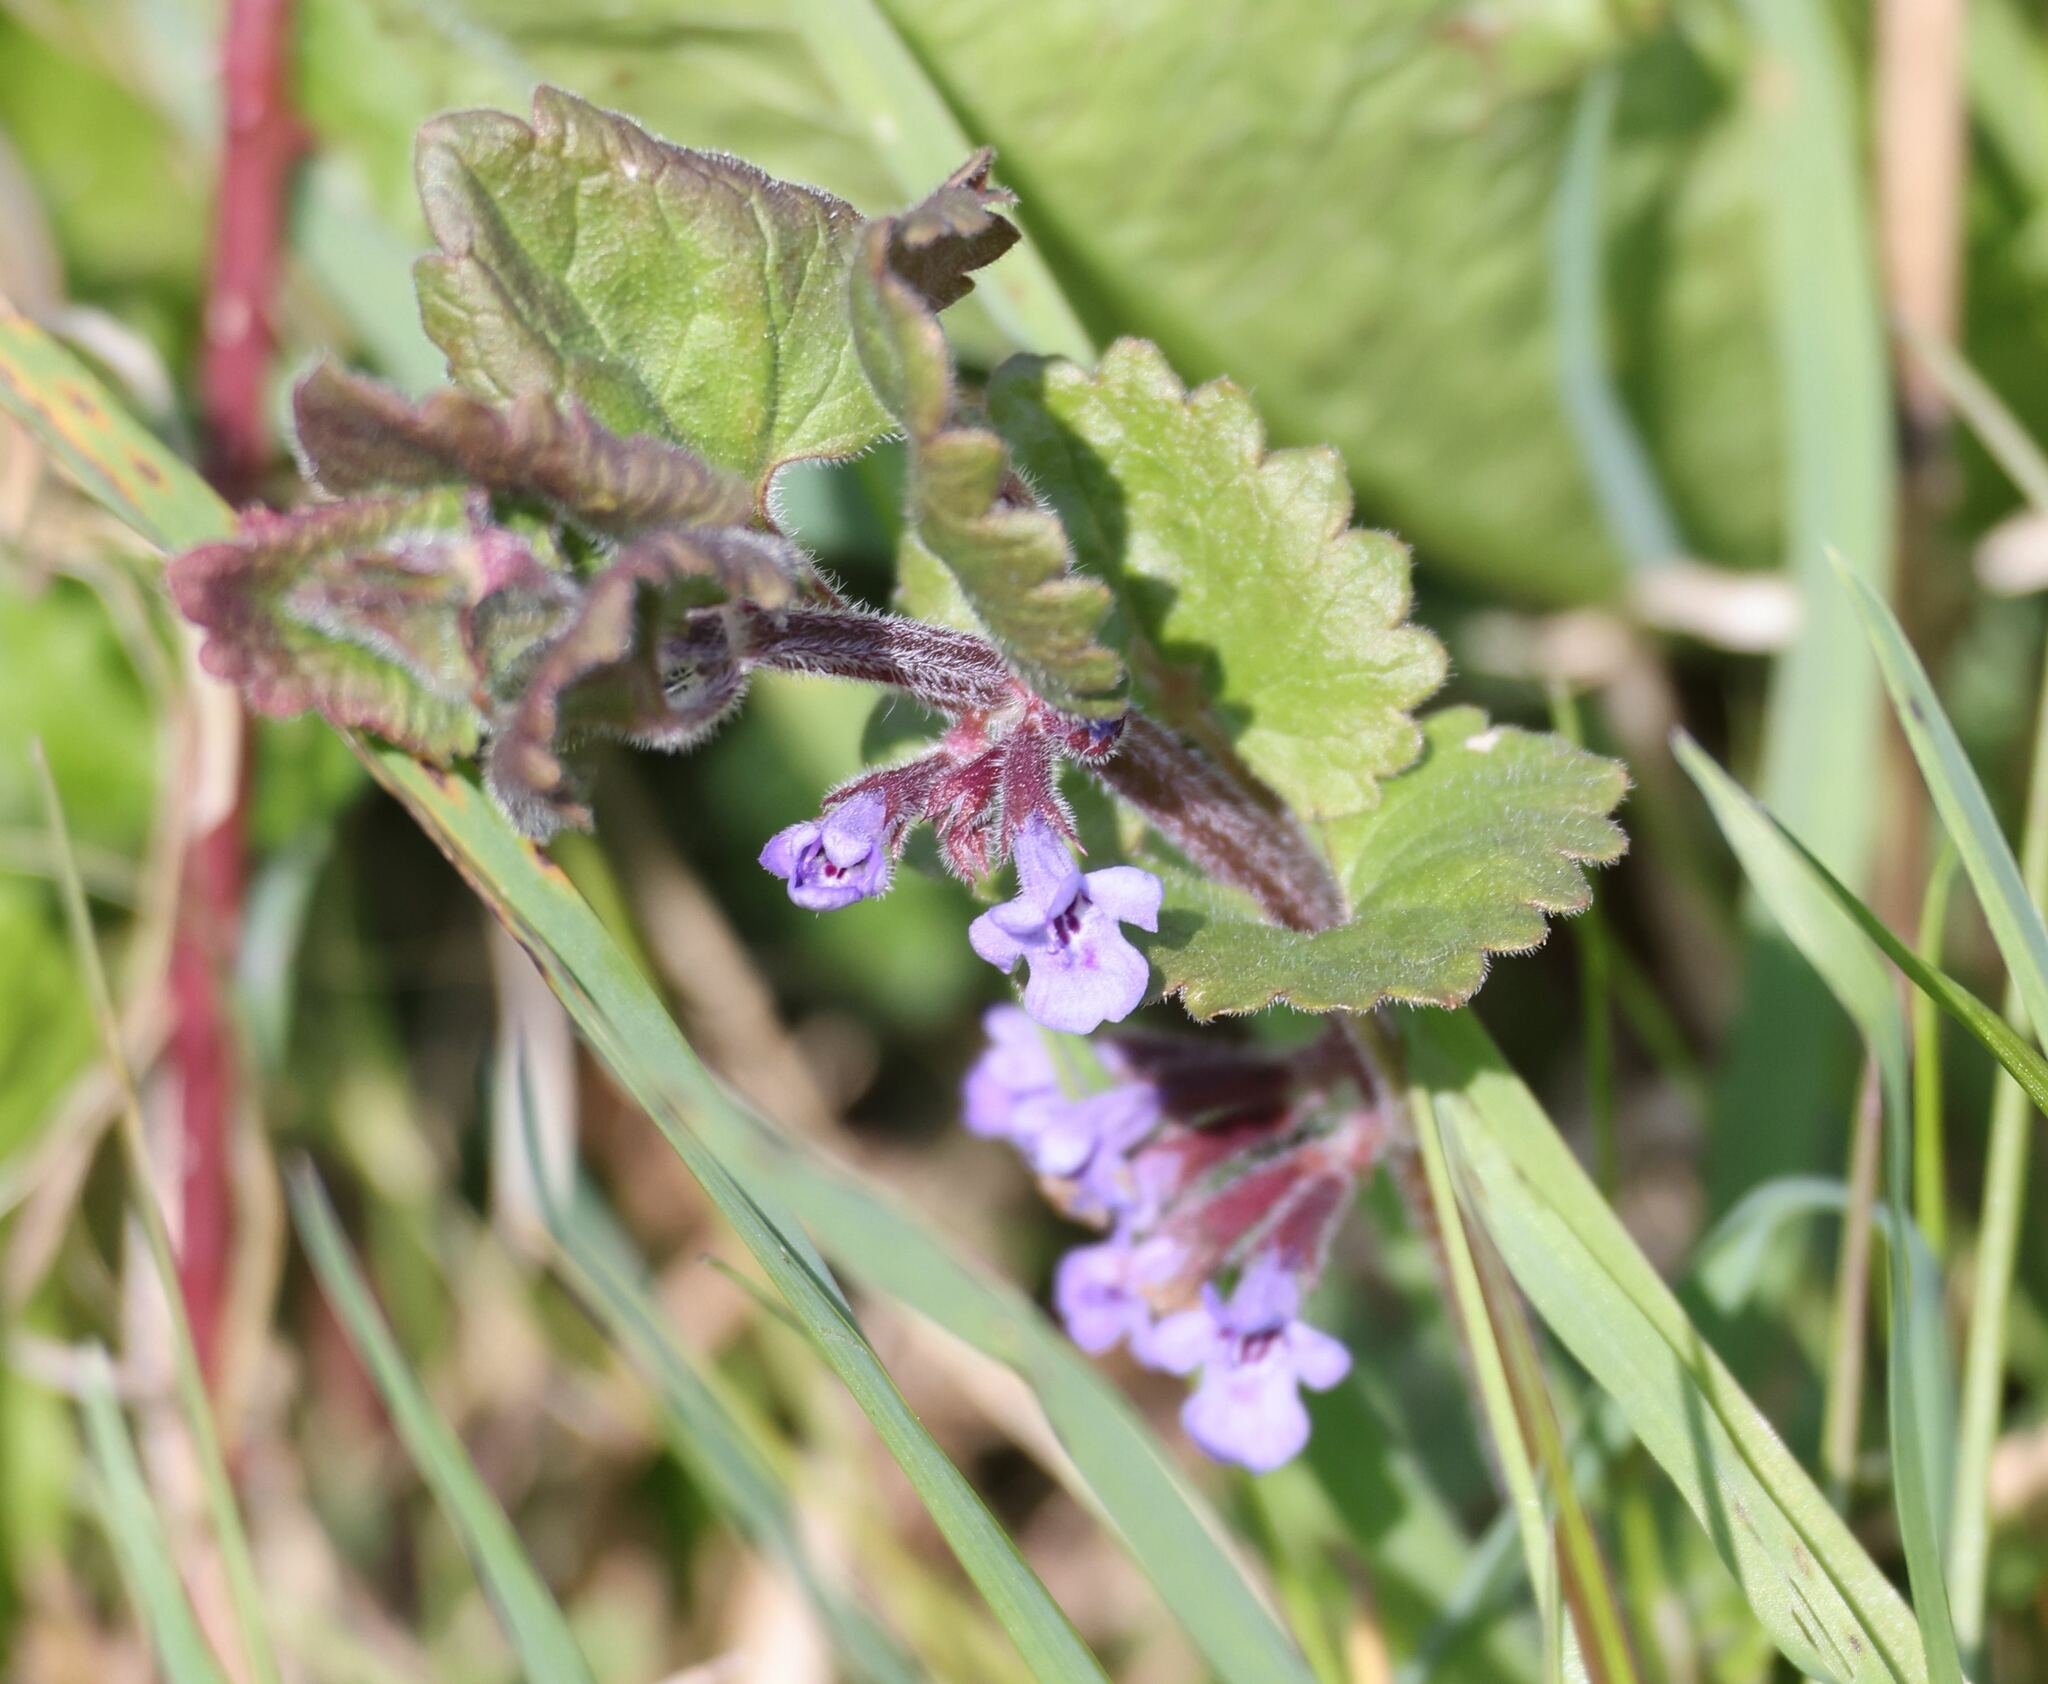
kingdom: Plantae
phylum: Tracheophyta
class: Magnoliopsida
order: Lamiales
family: Lamiaceae
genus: Glechoma
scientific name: Glechoma hederacea
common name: Ground ivy
